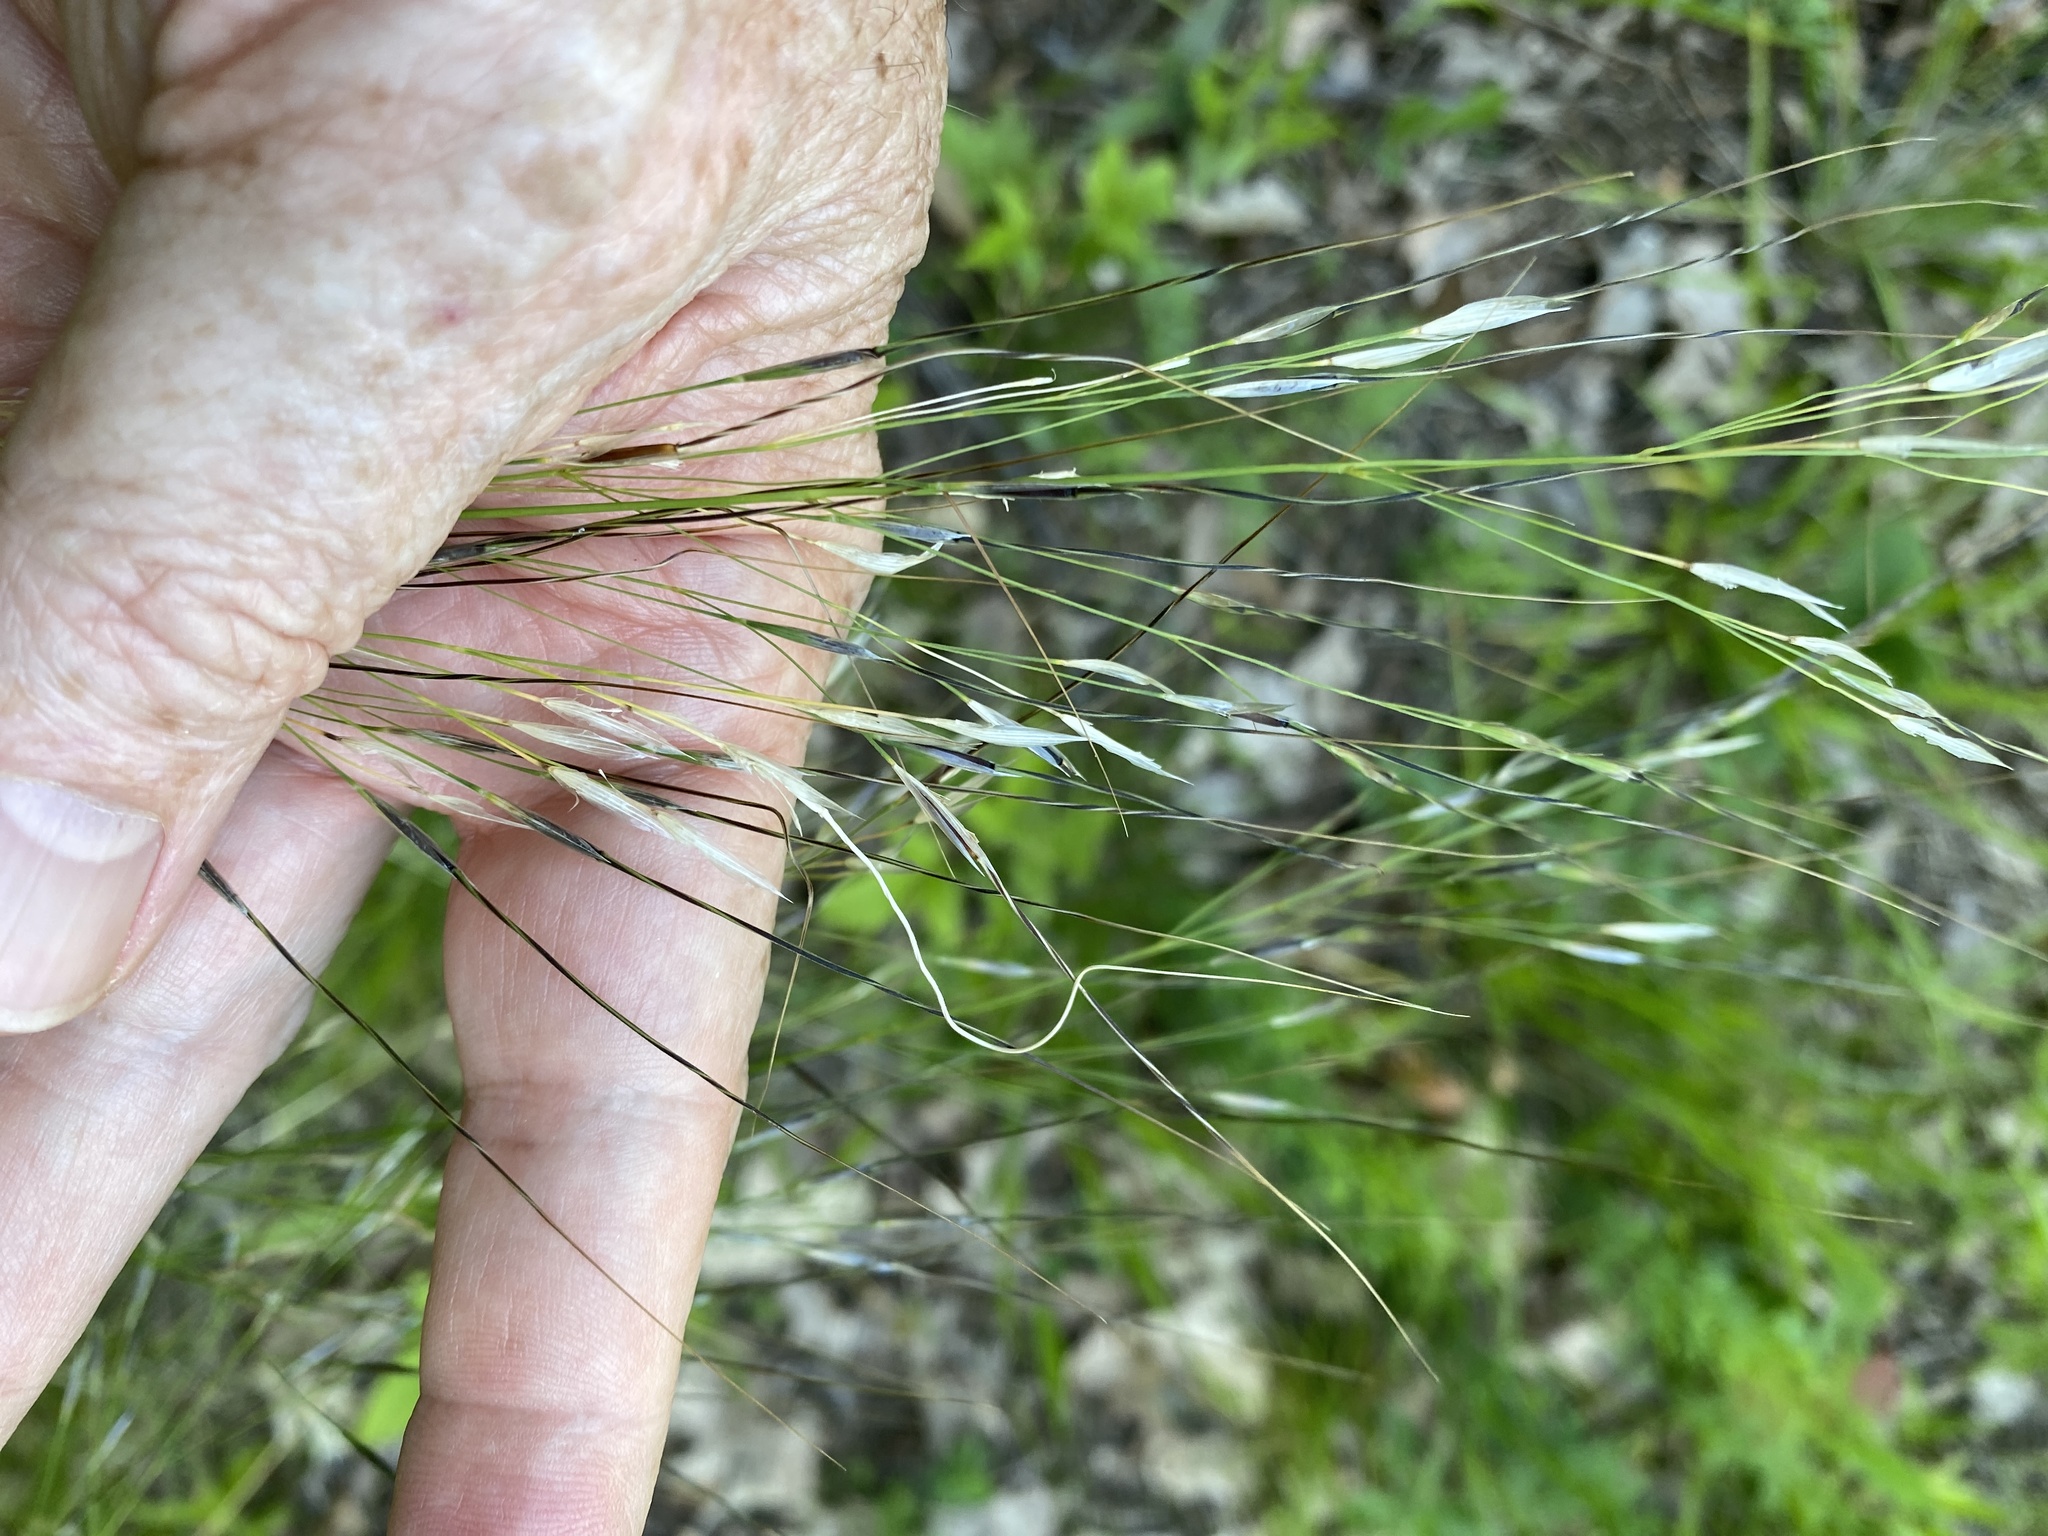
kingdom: Plantae
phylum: Tracheophyta
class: Liliopsida
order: Poales
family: Poaceae
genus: Piptochaetium
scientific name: Piptochaetium avenaceum
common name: Black bunchgrass
